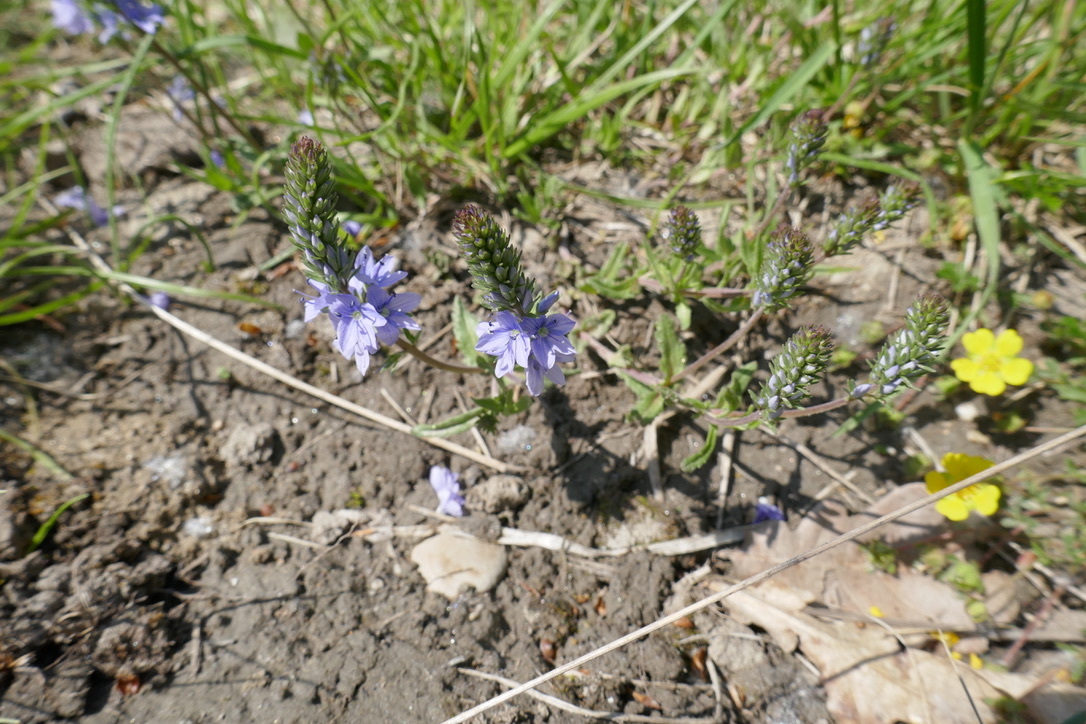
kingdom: Plantae
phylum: Tracheophyta
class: Magnoliopsida
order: Lamiales
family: Plantaginaceae
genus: Veronica
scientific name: Veronica prostrata
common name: Prostrate speedwell
